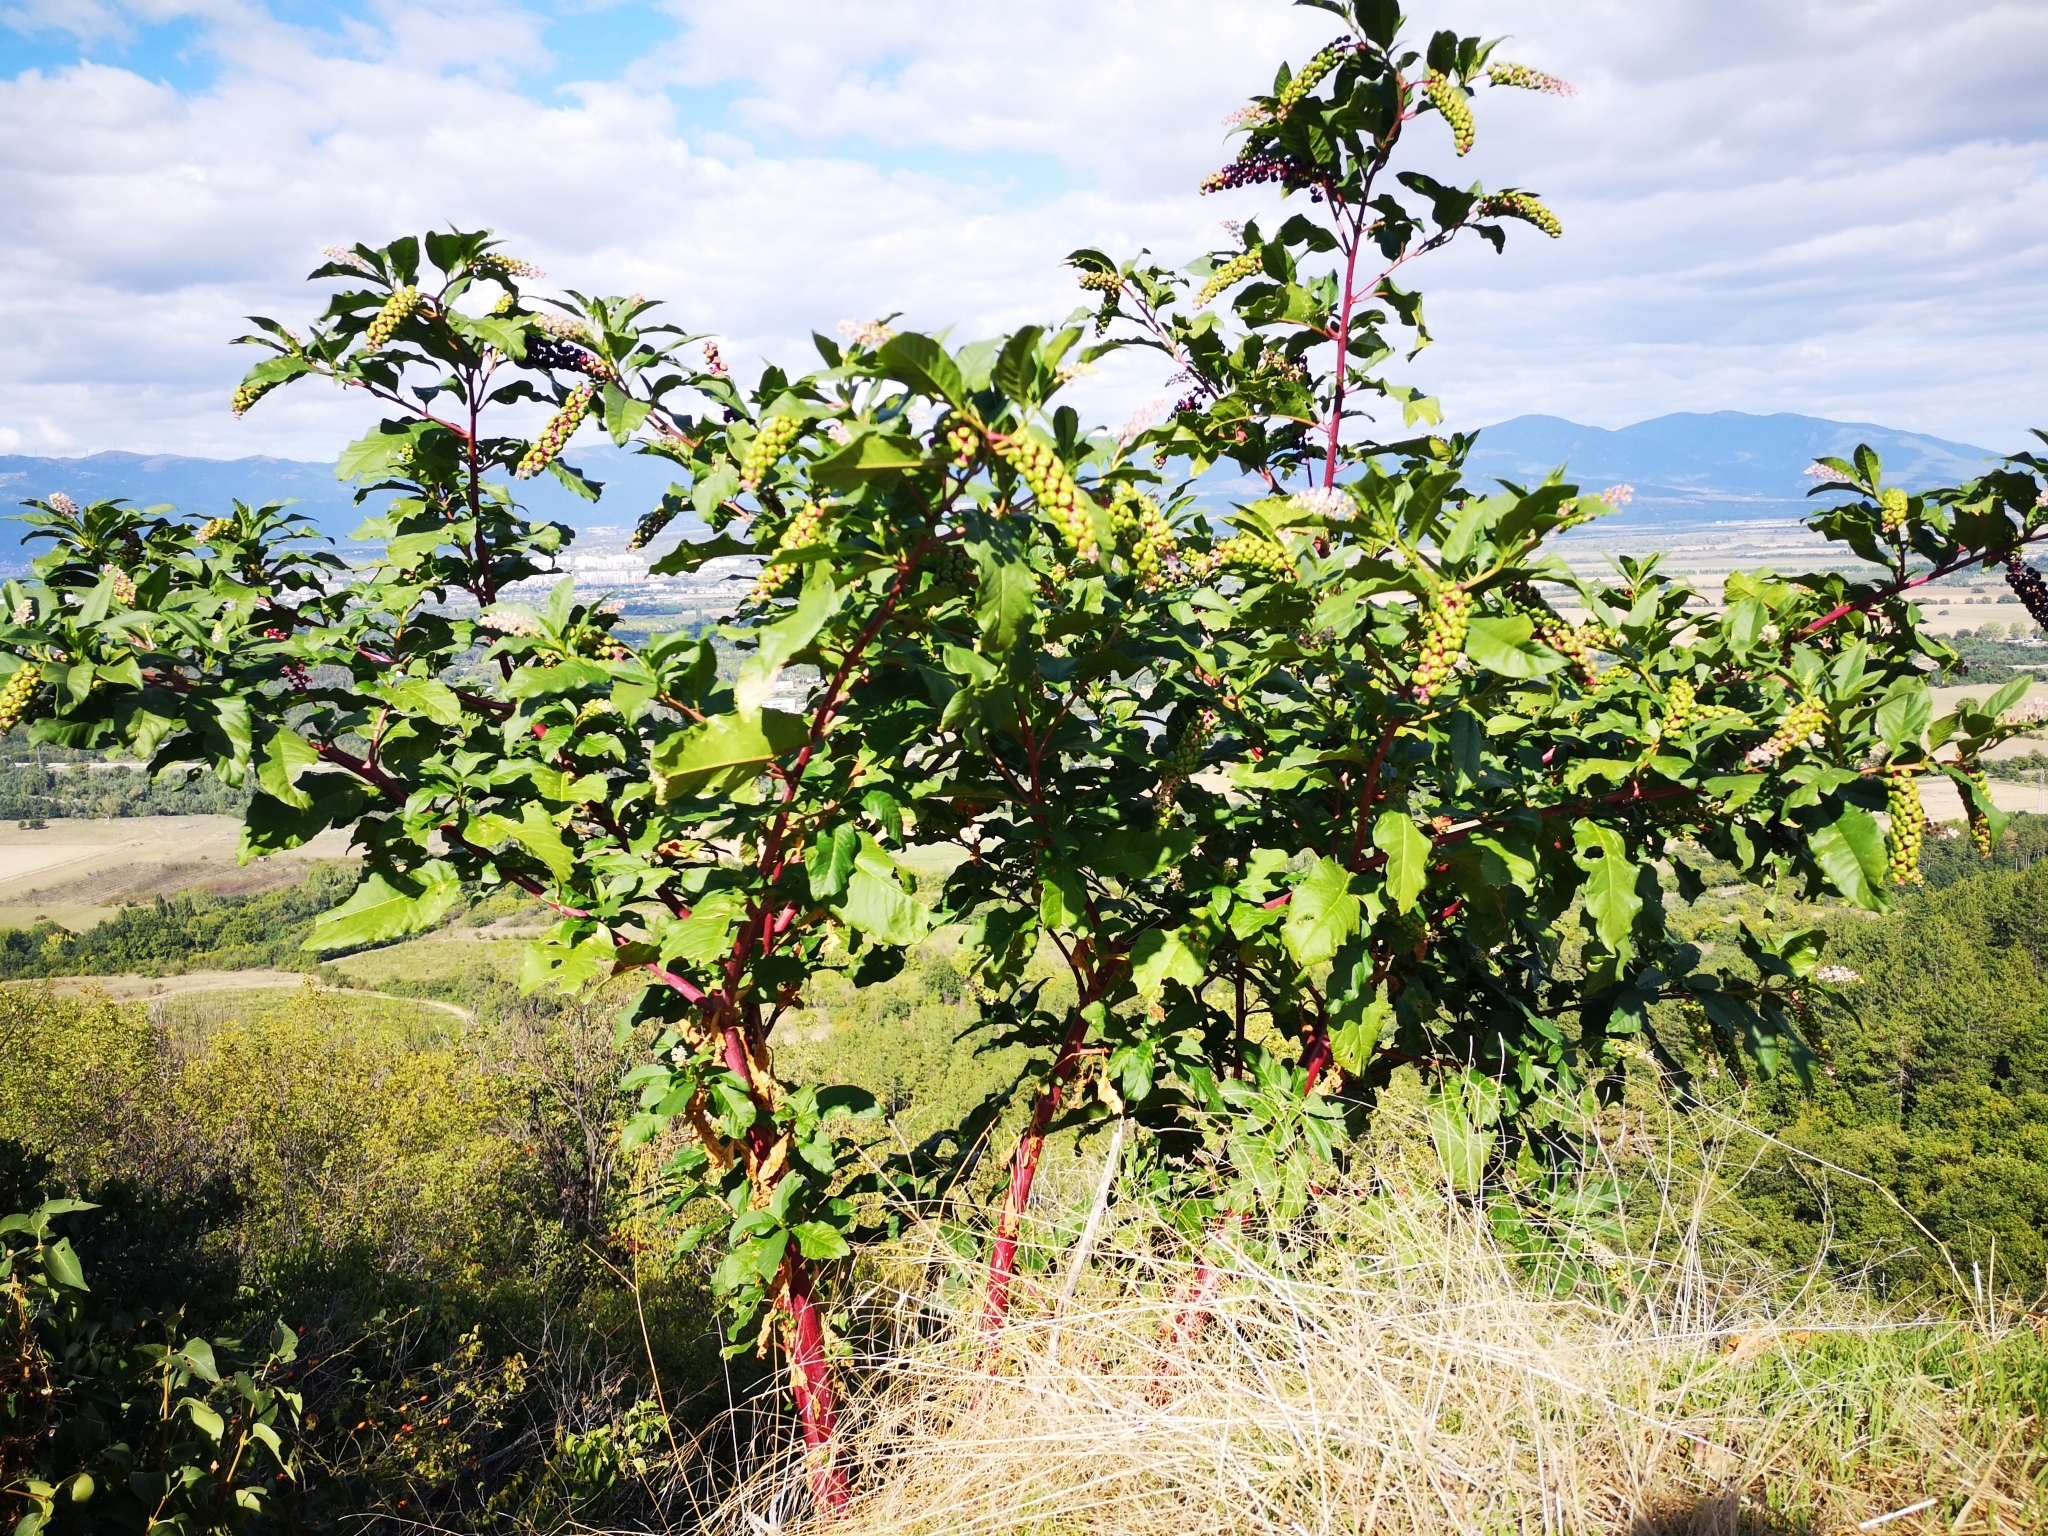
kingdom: Plantae
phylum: Tracheophyta
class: Magnoliopsida
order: Caryophyllales
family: Phytolaccaceae
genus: Phytolacca
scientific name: Phytolacca americana
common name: American pokeweed
